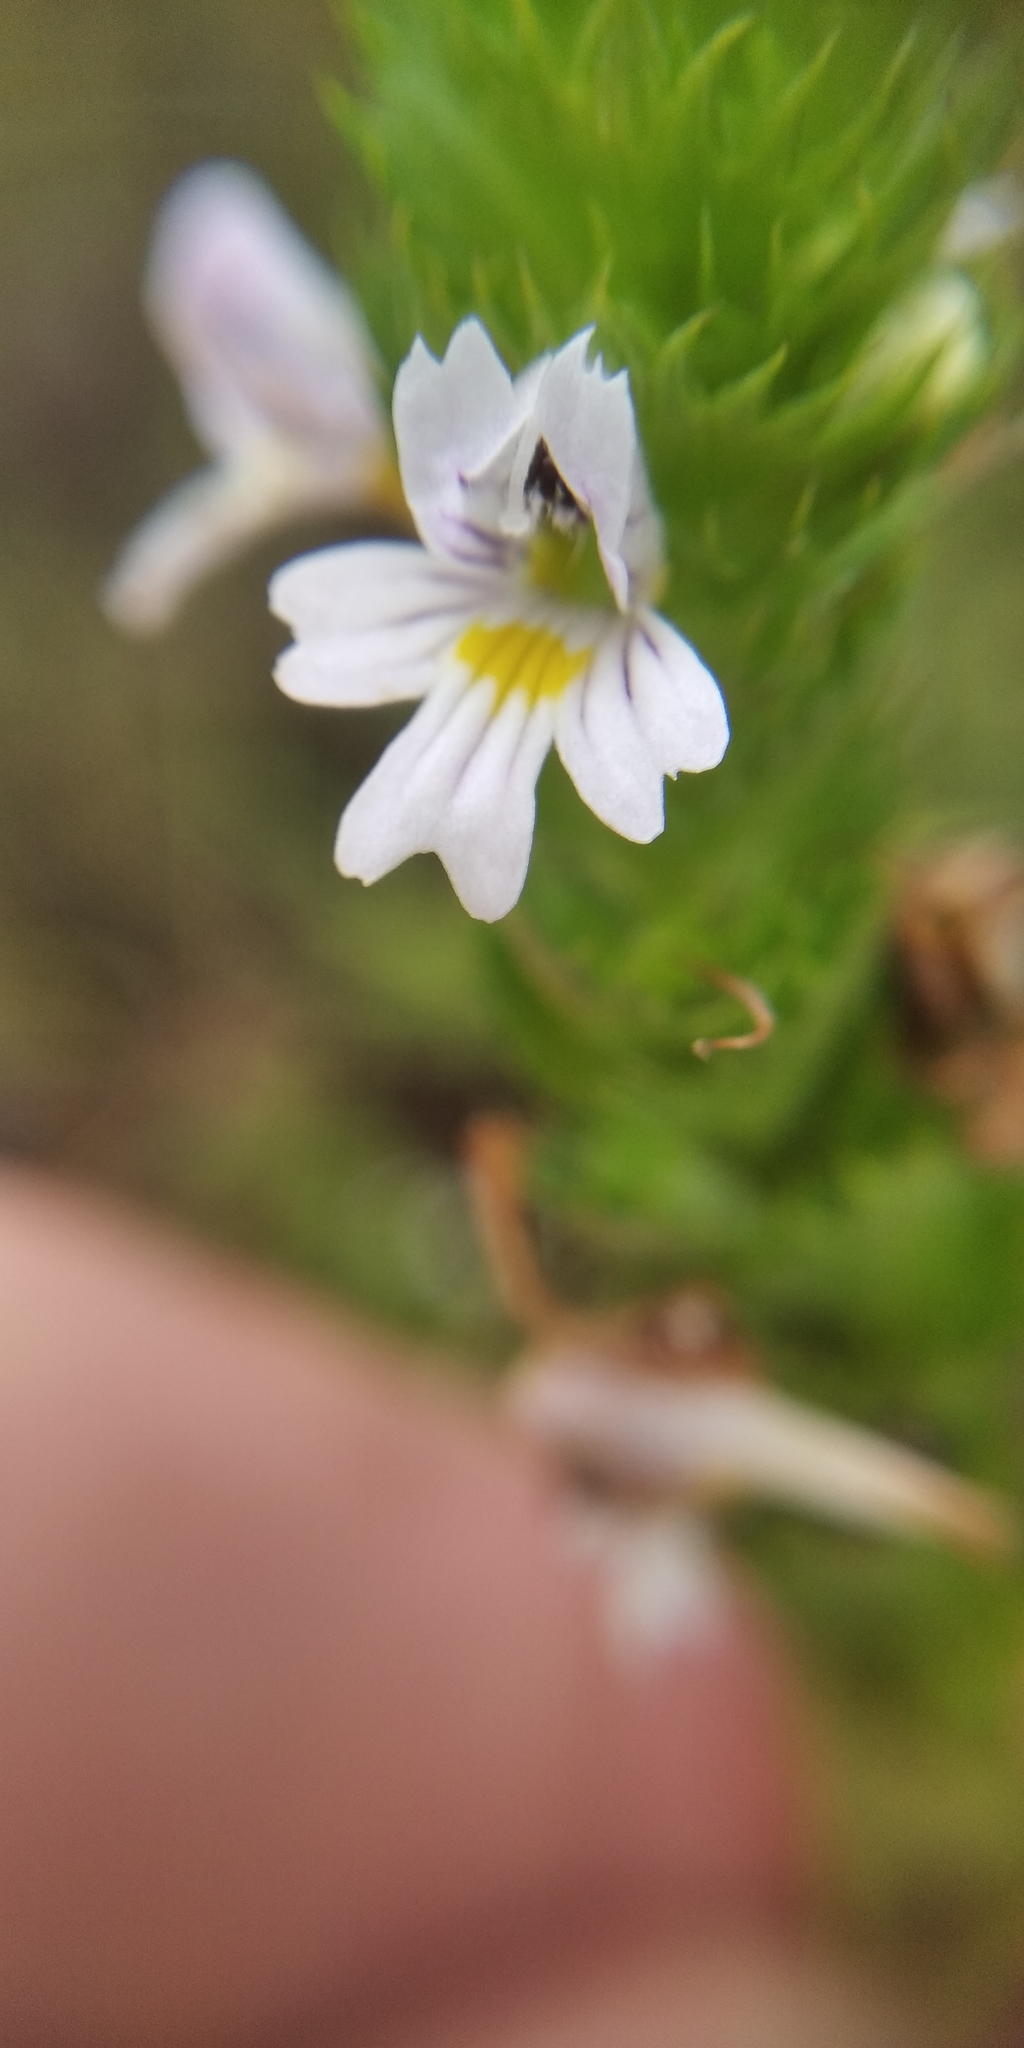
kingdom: Plantae
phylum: Tracheophyta
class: Magnoliopsida
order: Lamiales
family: Orobanchaceae
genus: Euphrasia
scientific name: Euphrasia pectinata
